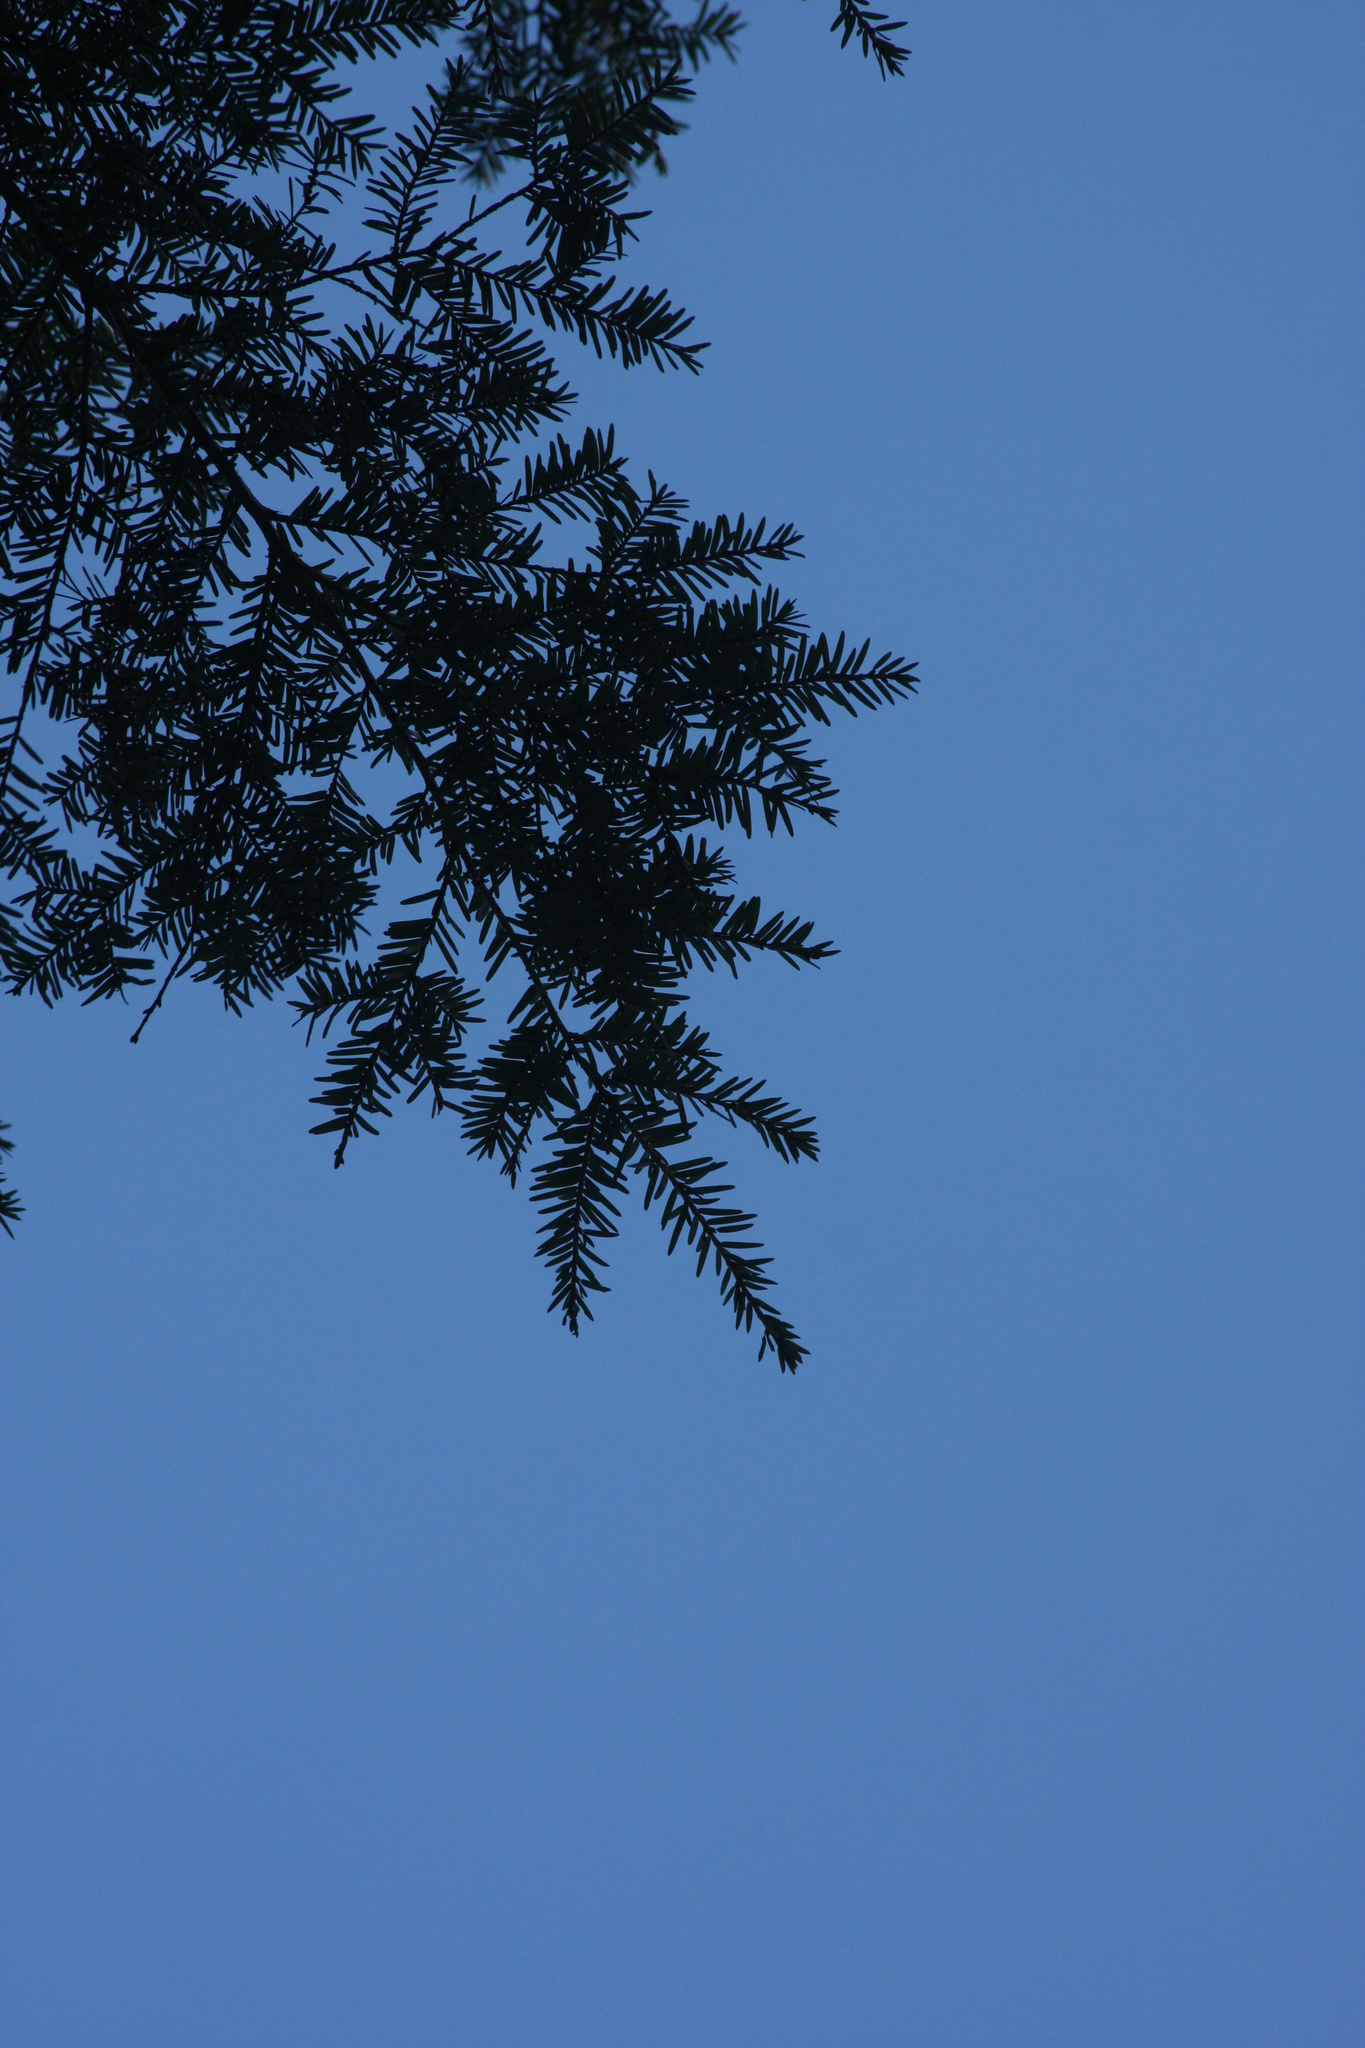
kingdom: Plantae
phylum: Tracheophyta
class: Pinopsida
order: Pinales
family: Pinaceae
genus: Tsuga
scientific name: Tsuga canadensis
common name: Eastern hemlock
